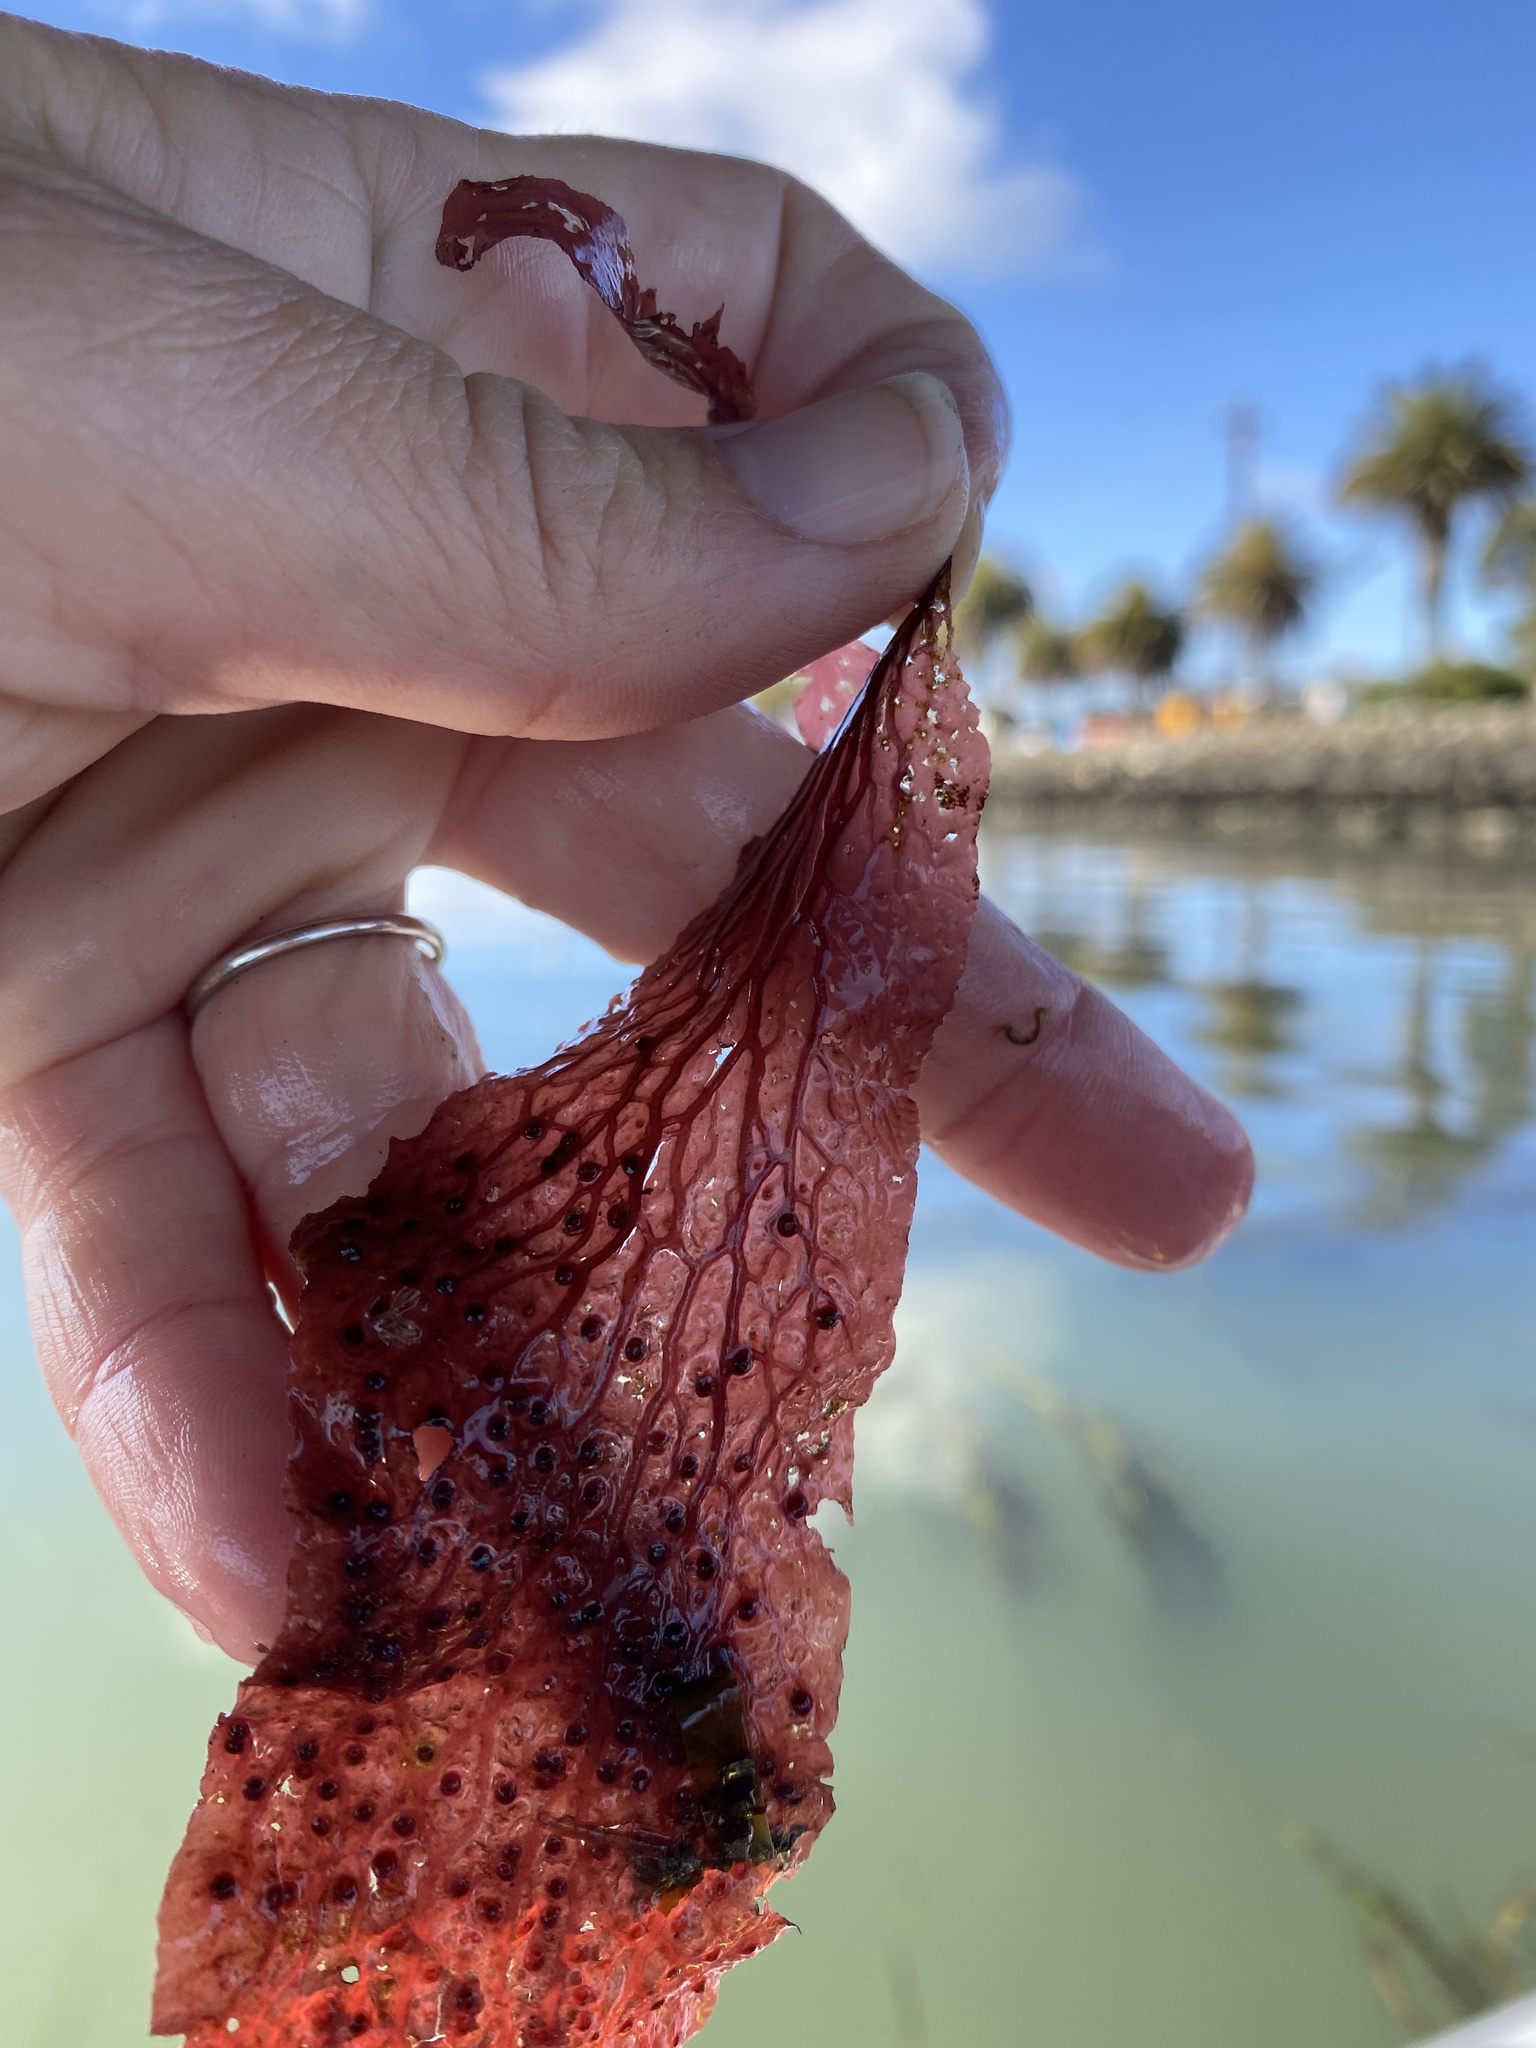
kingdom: Plantae
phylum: Rhodophyta
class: Florideophyceae
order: Ceramiales
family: Delesseriaceae
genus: Polyneura
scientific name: Polyneura latissima
